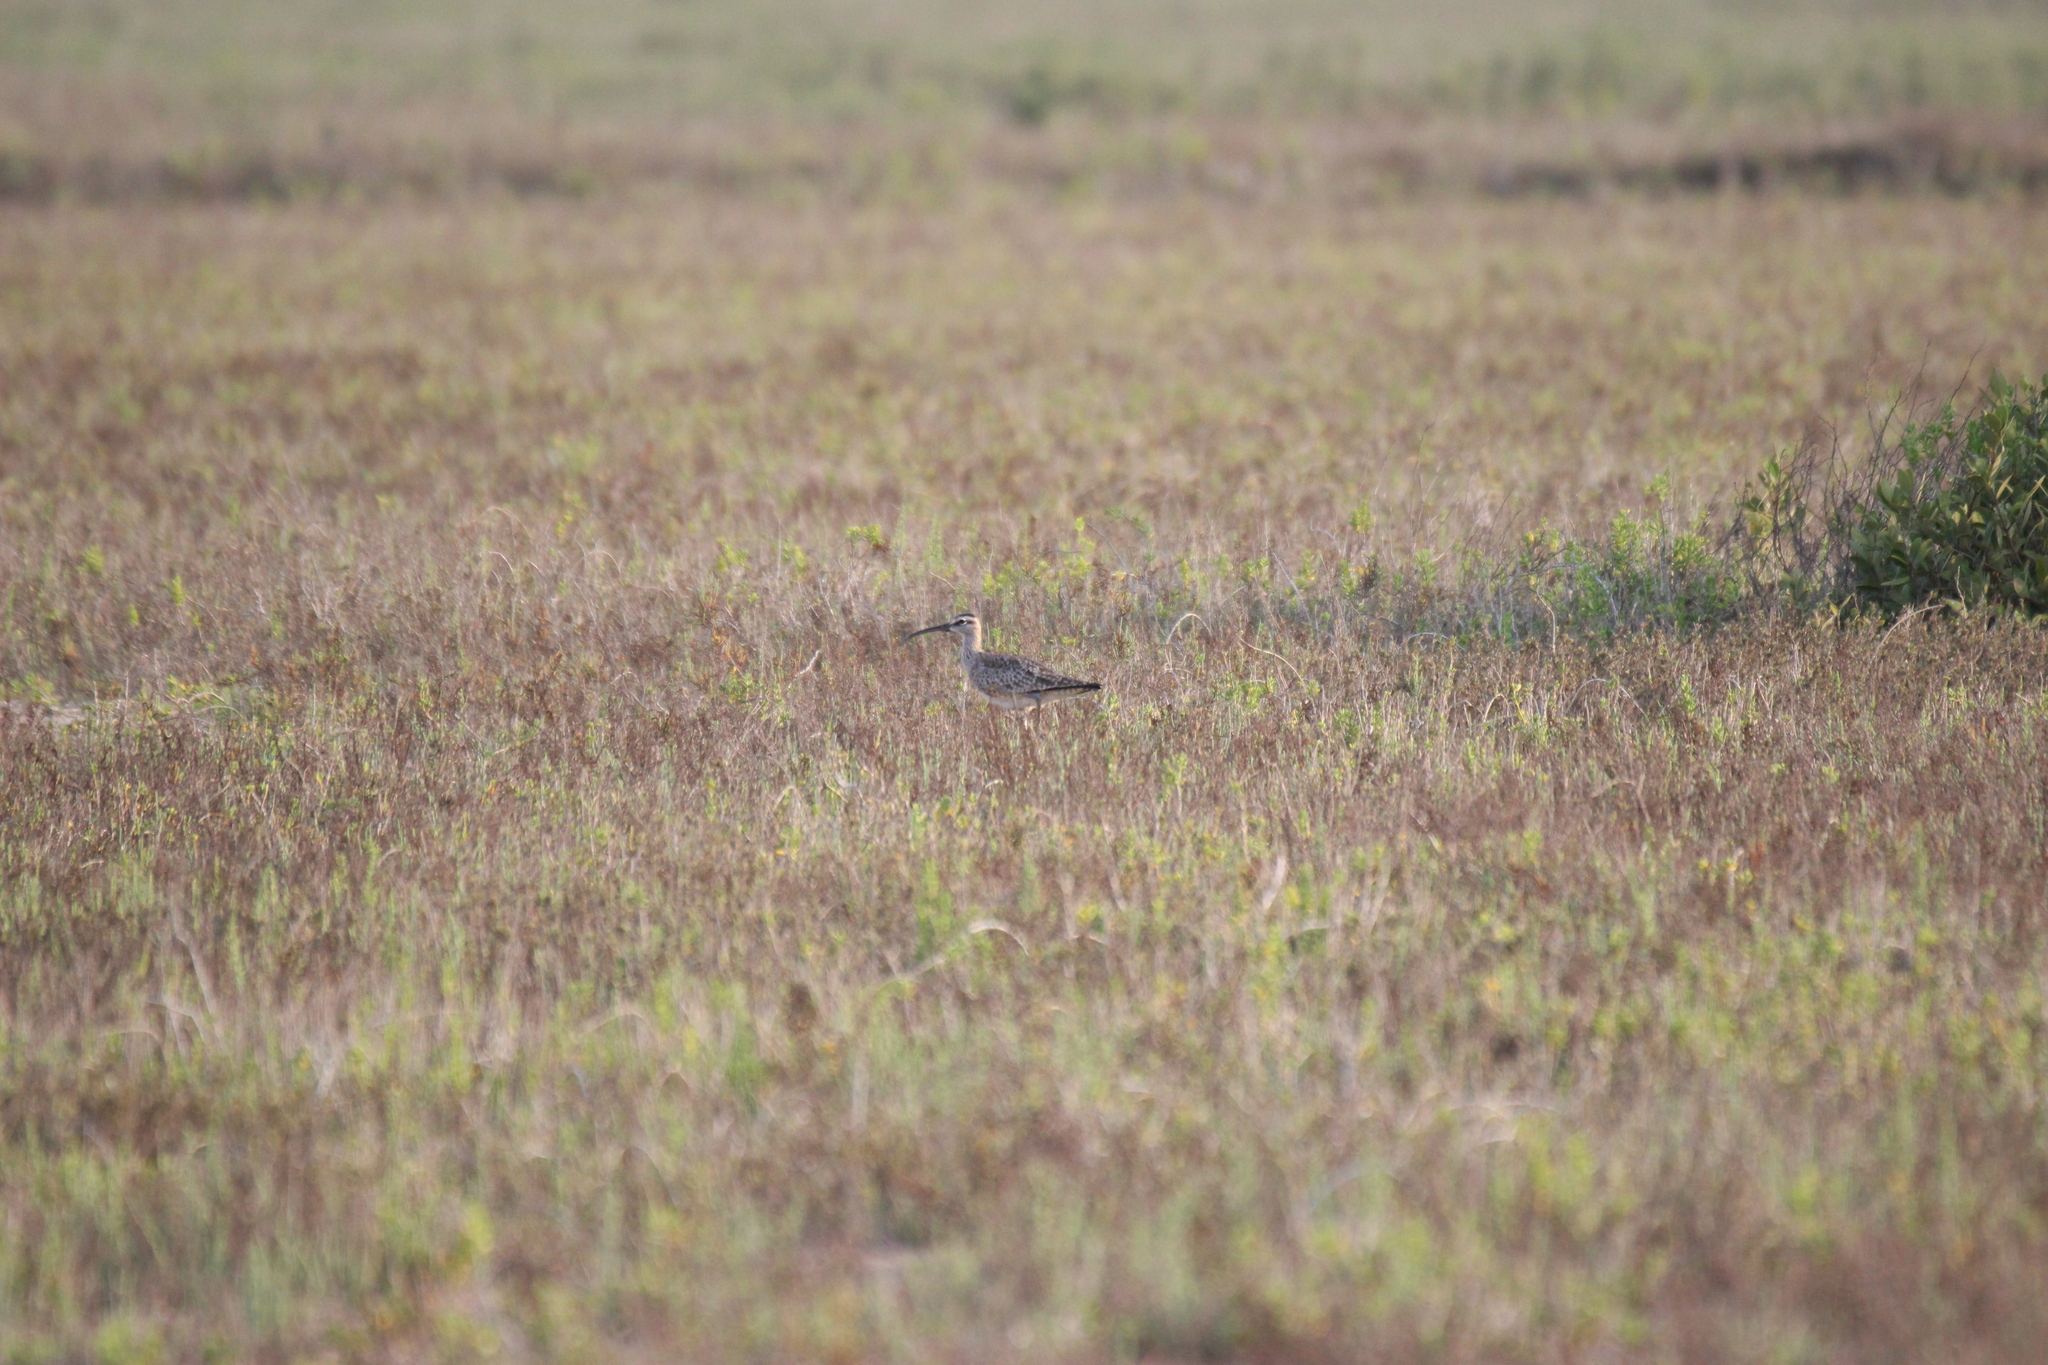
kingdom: Animalia
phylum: Chordata
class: Aves
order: Charadriiformes
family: Scolopacidae
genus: Numenius
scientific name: Numenius hudsonicus
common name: Hudsonian whimbrel
